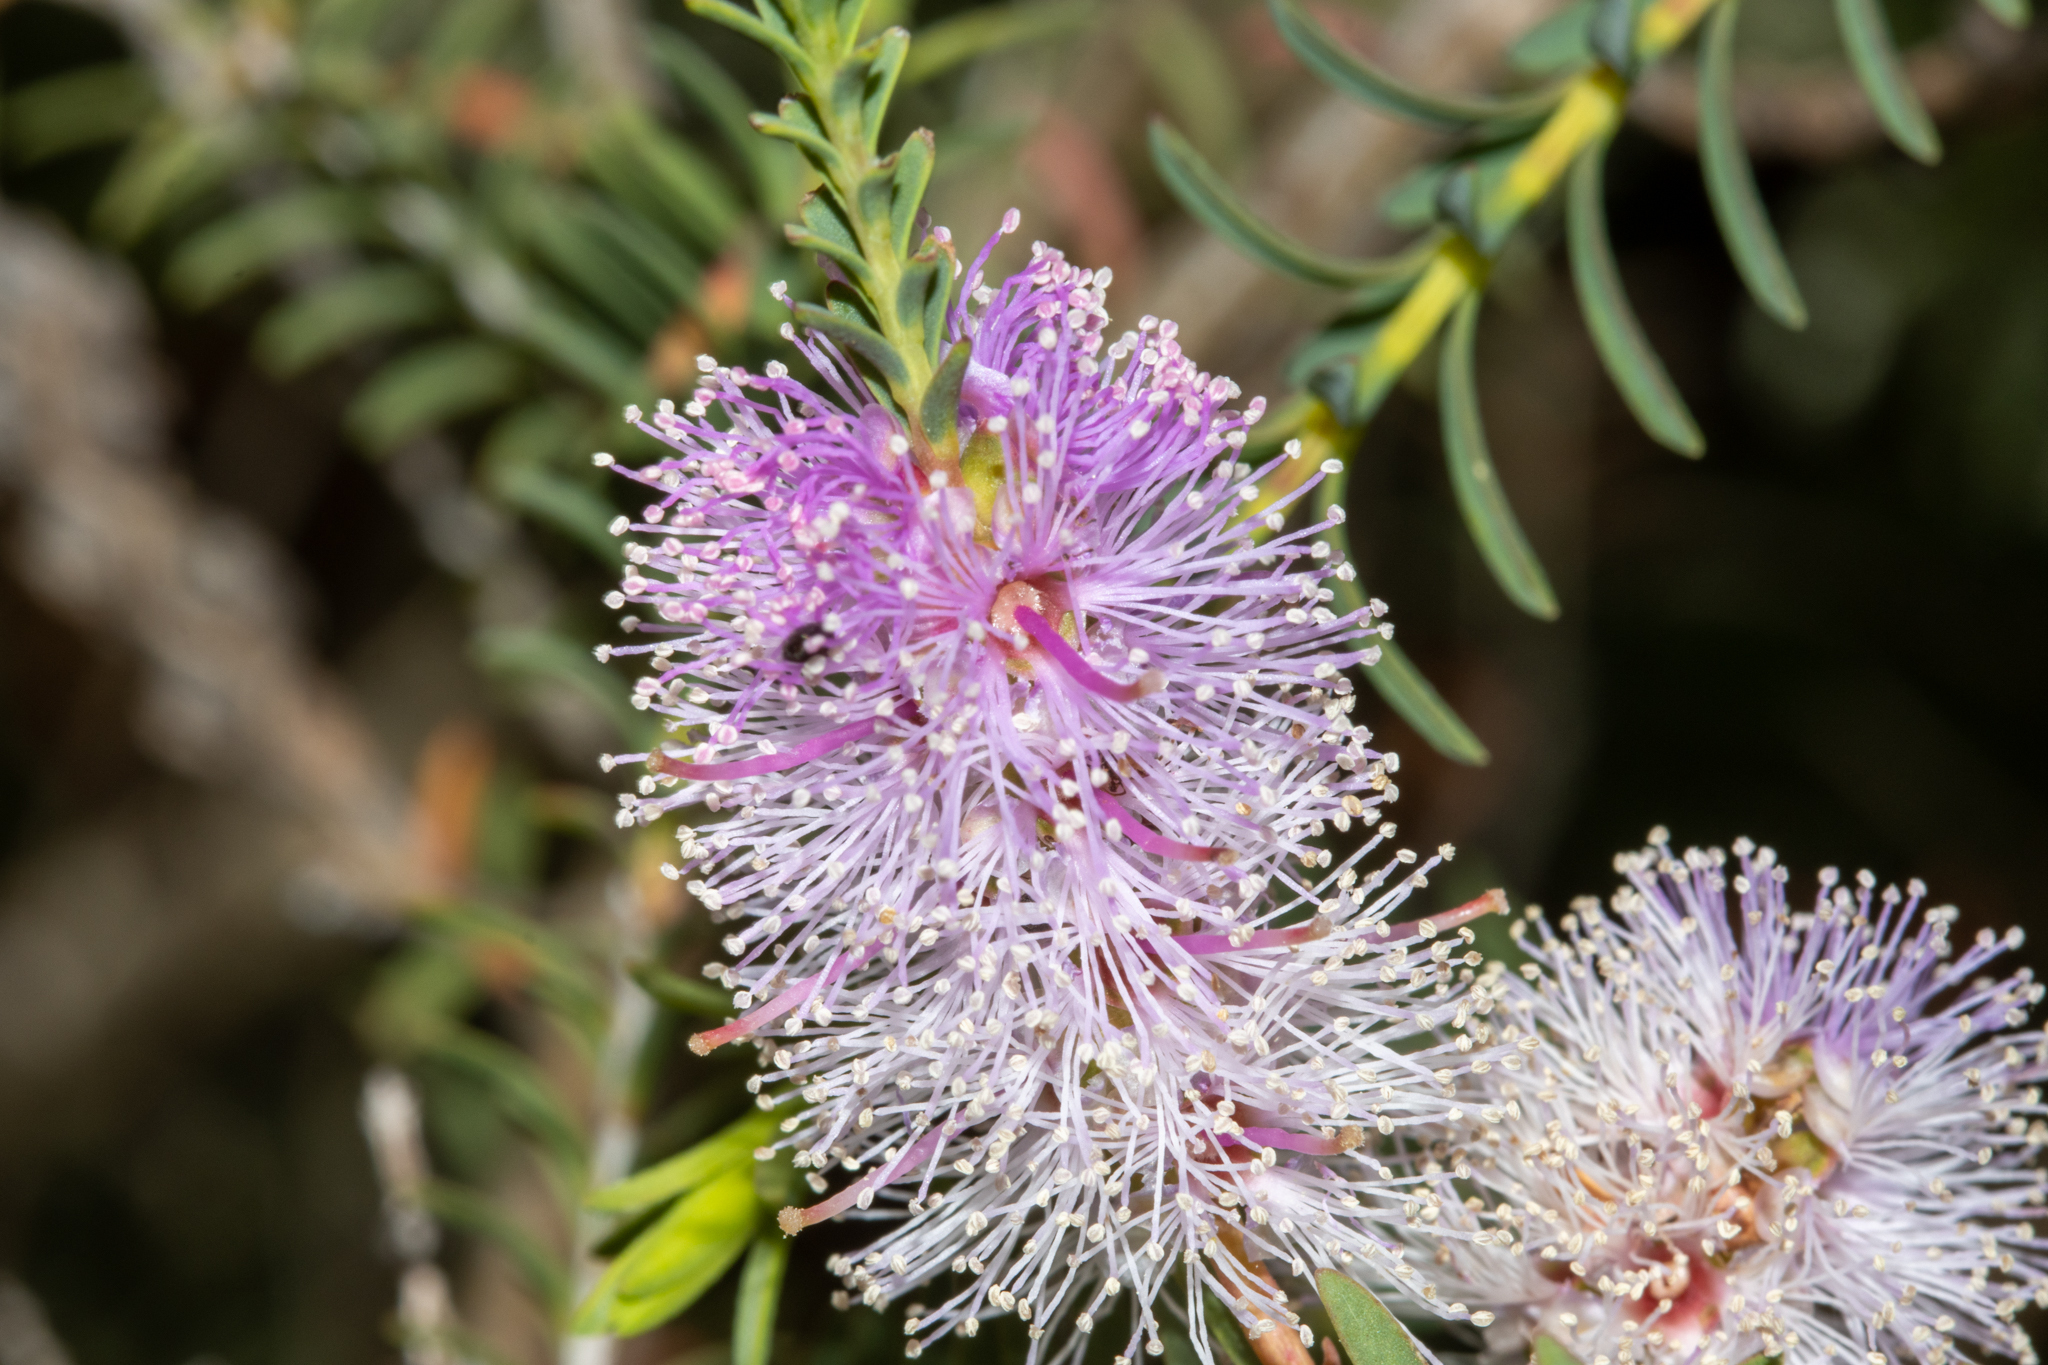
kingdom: Plantae
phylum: Tracheophyta
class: Magnoliopsida
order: Myrtales
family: Myrtaceae
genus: Melaleuca
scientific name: Melaleuca decussata
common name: Cross-leaf honey myrtle
